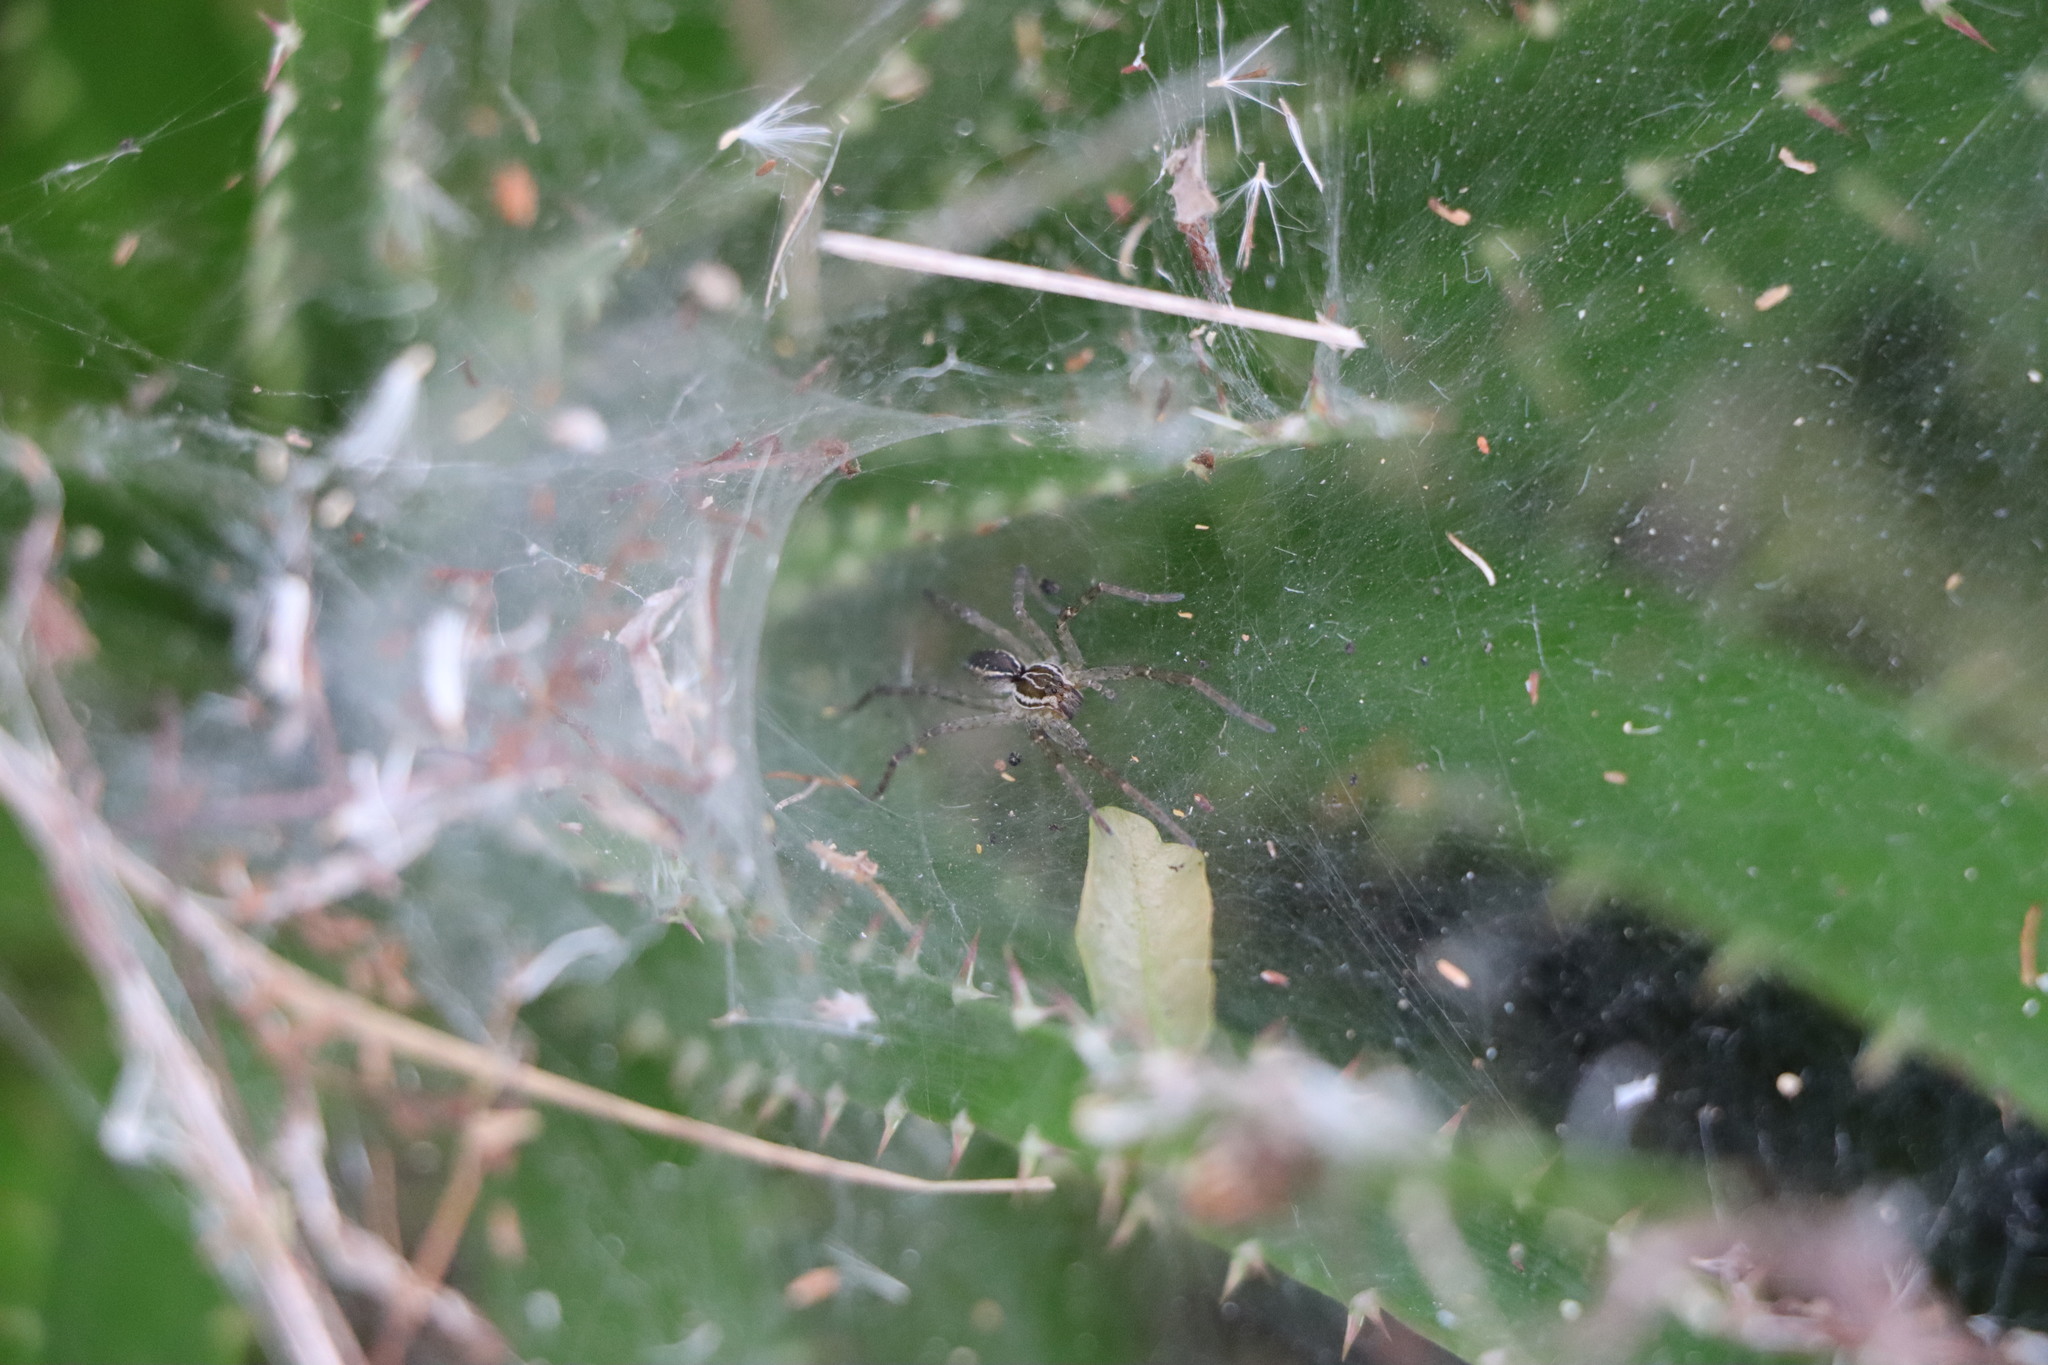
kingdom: Animalia
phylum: Arthropoda
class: Arachnida
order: Araneae
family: Lycosidae
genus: Aglaoctenus
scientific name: Aglaoctenus lagotis
